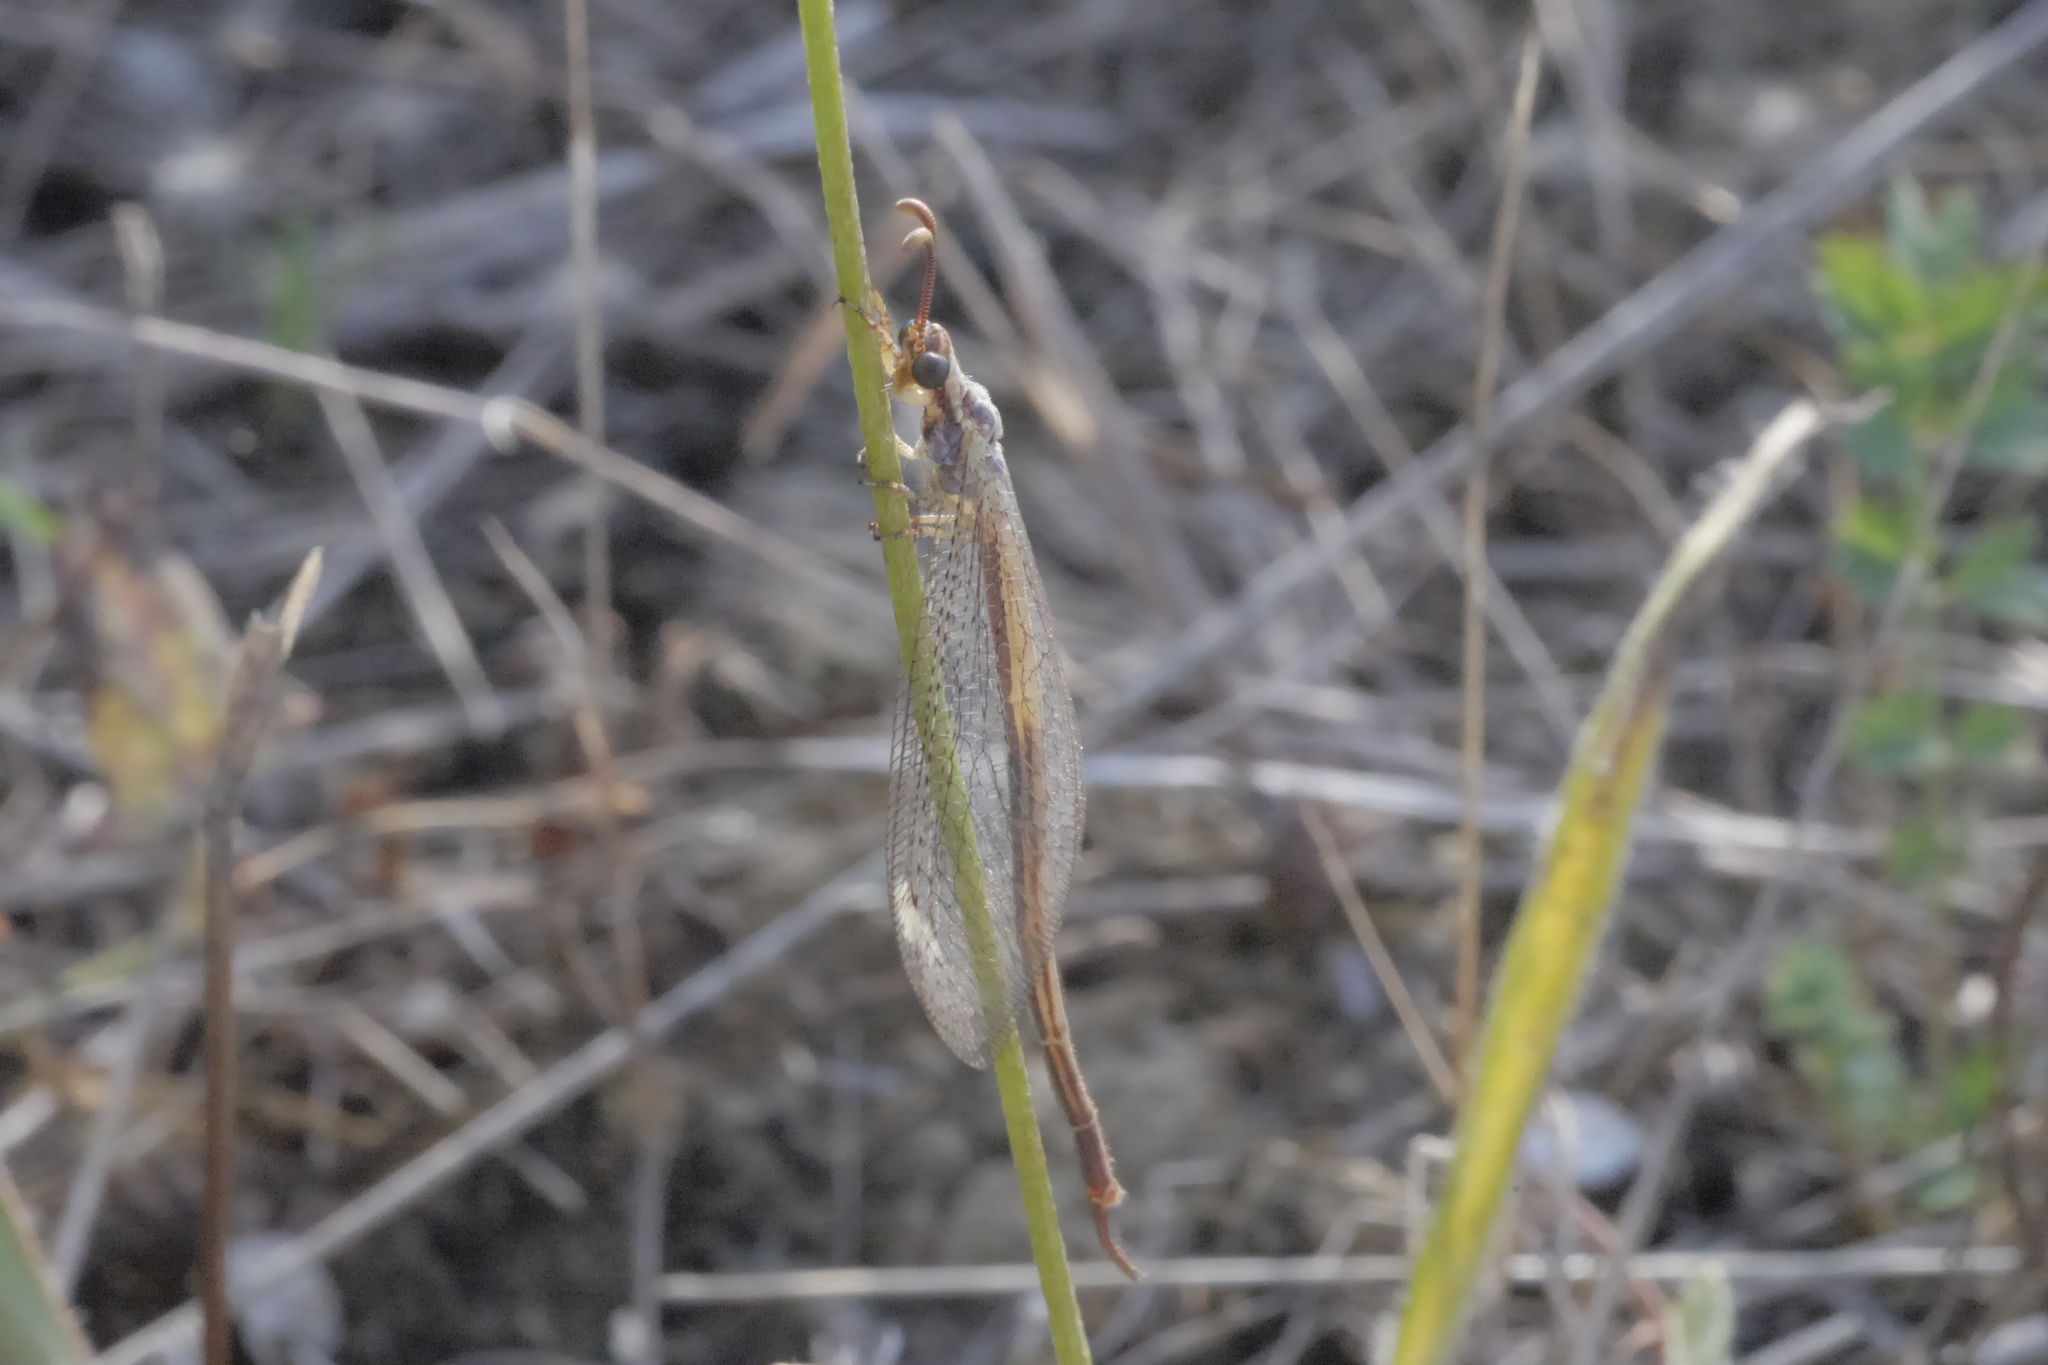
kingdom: Animalia
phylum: Arthropoda
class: Insecta
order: Neuroptera
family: Myrmeleontidae
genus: Macronemurus
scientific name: Macronemurus appendiculatus
